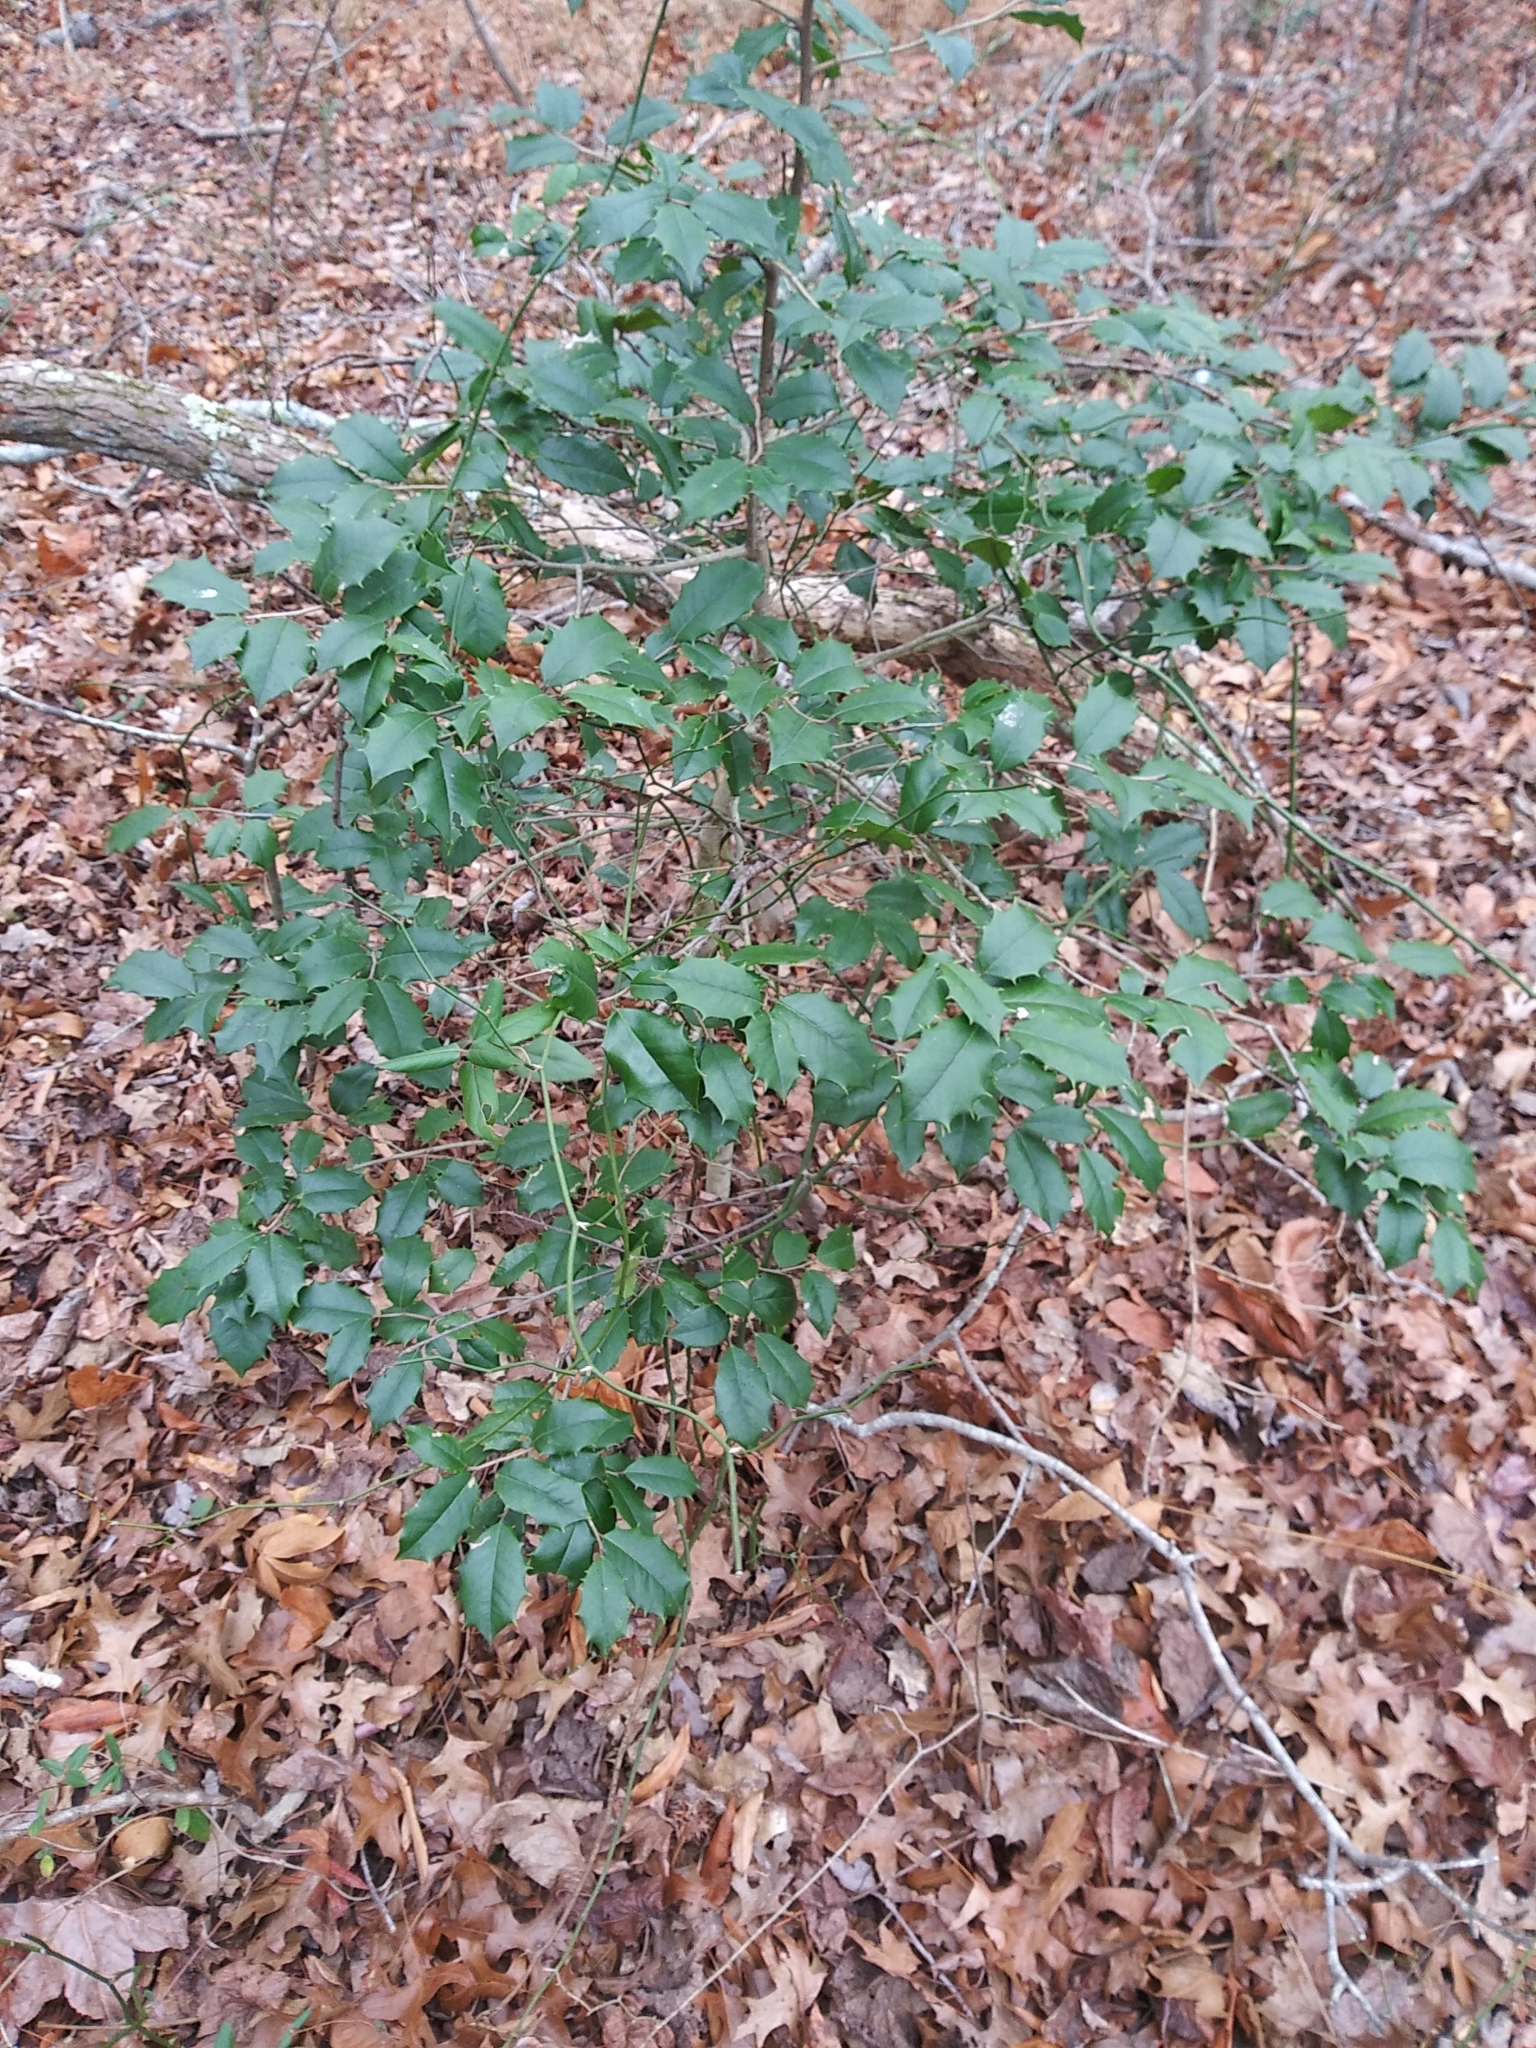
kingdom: Plantae
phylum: Tracheophyta
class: Magnoliopsida
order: Aquifoliales
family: Aquifoliaceae
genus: Ilex
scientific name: Ilex opaca
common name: American holly
